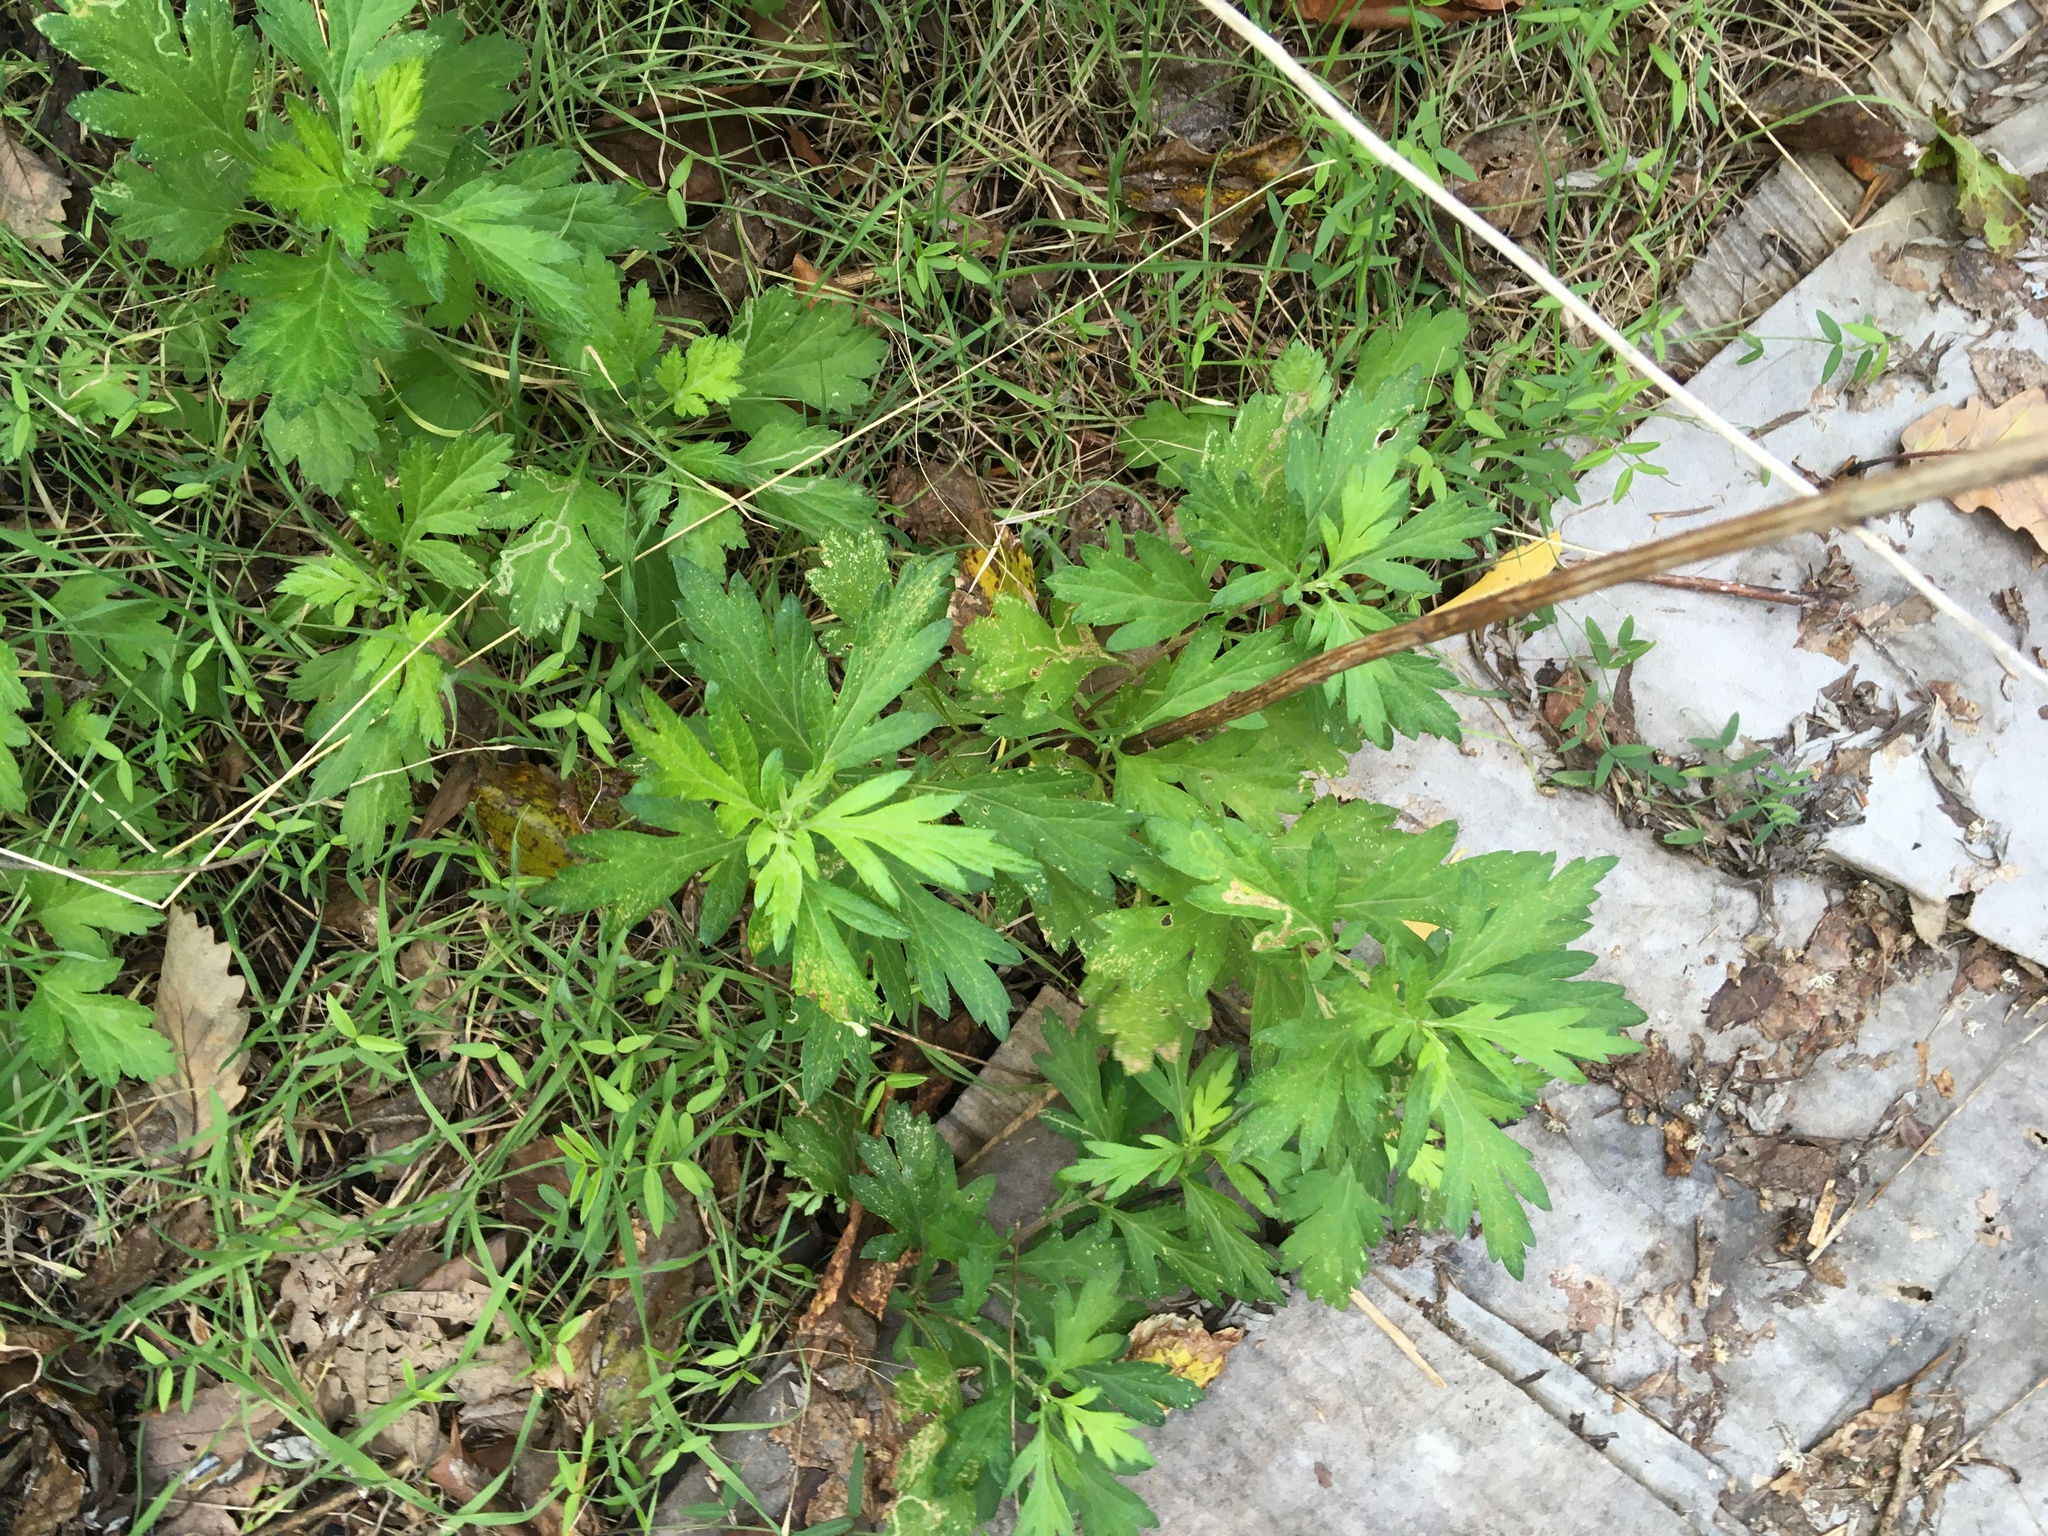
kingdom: Plantae
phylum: Tracheophyta
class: Magnoliopsida
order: Asterales
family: Asteraceae
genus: Artemisia
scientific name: Artemisia vulgaris
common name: Mugwort
